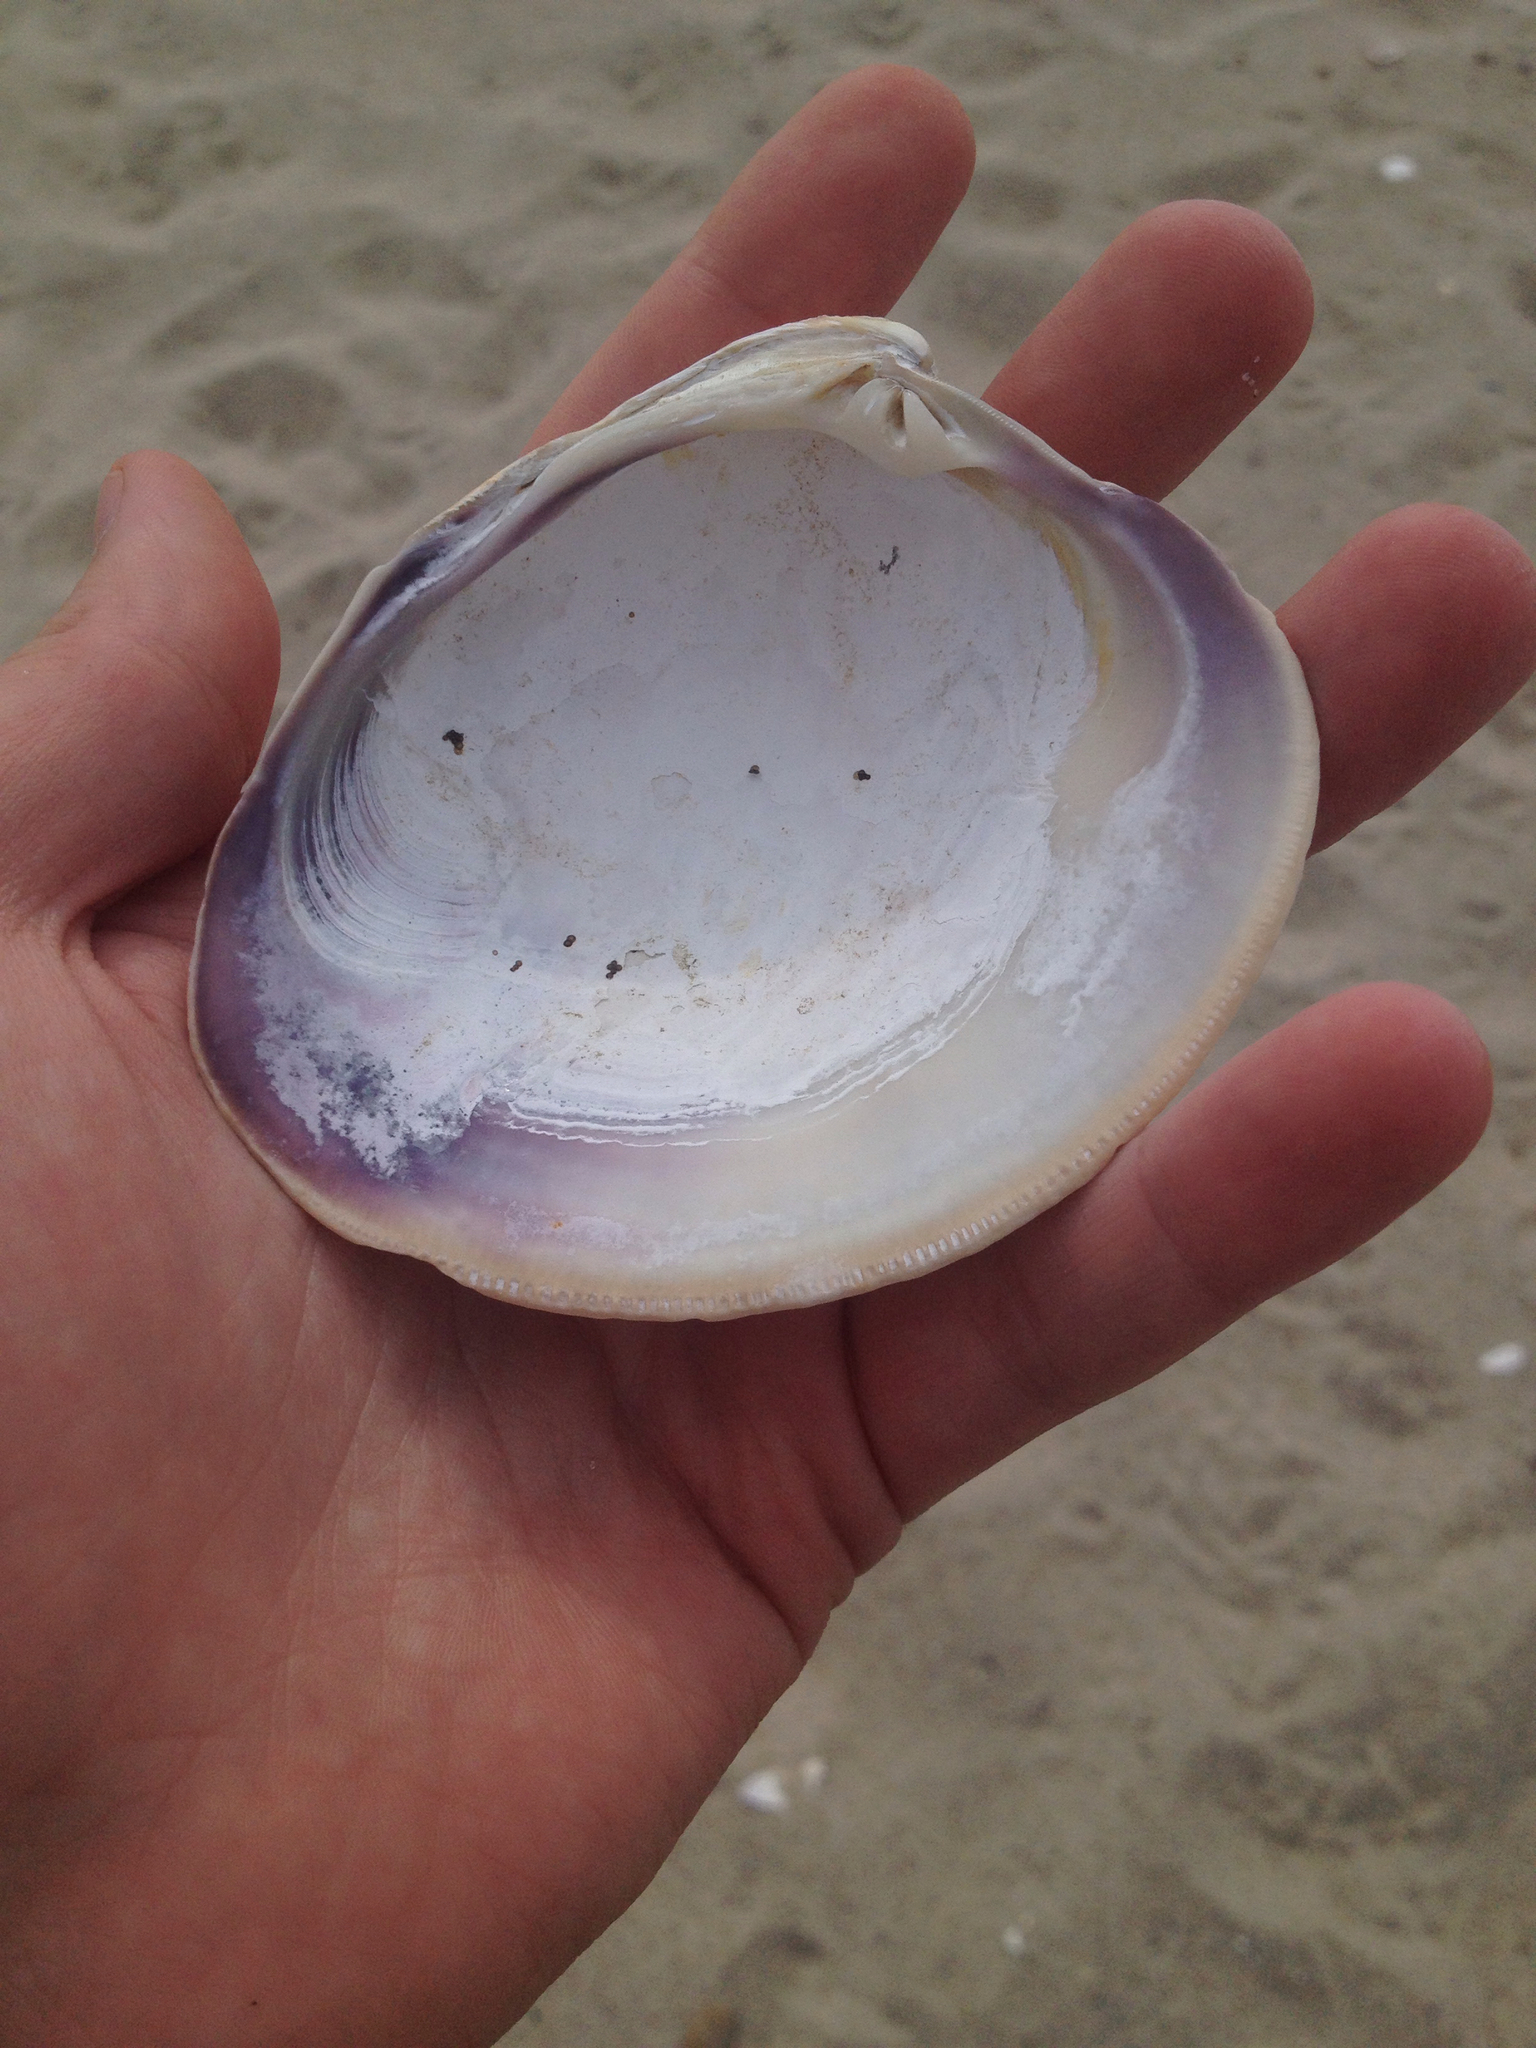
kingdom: Animalia
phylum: Mollusca
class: Bivalvia
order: Venerida
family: Veneridae
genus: Mercenaria
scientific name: Mercenaria mercenaria
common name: American hard-shelled clam
